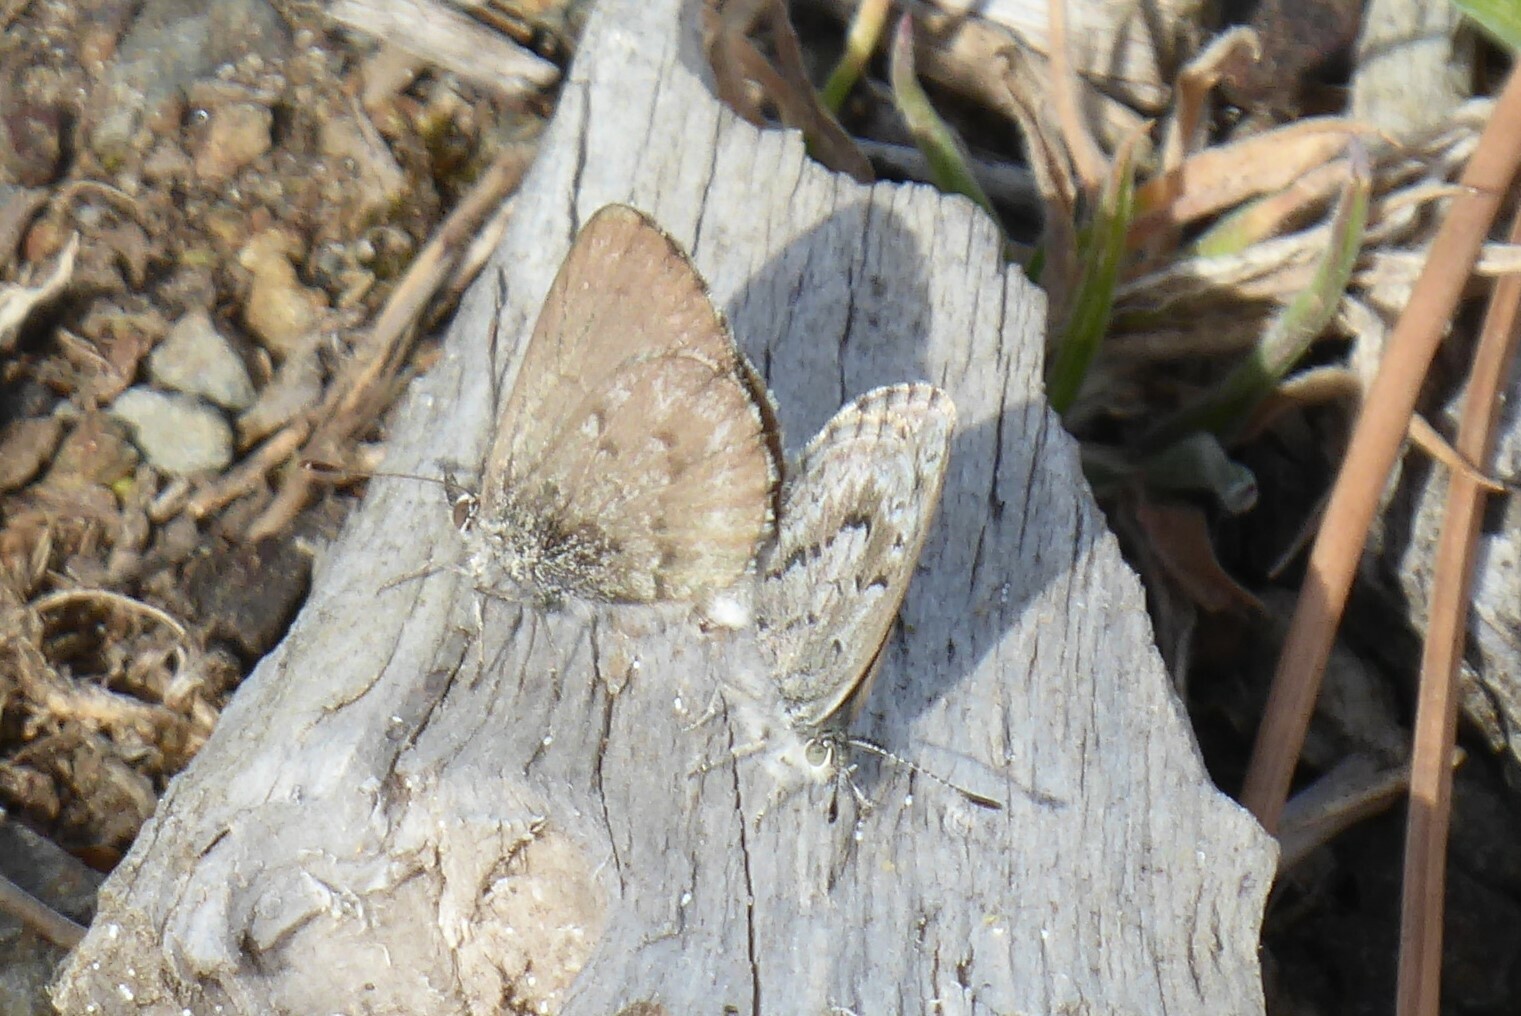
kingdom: Animalia
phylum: Arthropoda
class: Insecta
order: Lepidoptera
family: Lycaenidae
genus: Zizina
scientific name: Zizina oxleyi
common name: Southern blue
